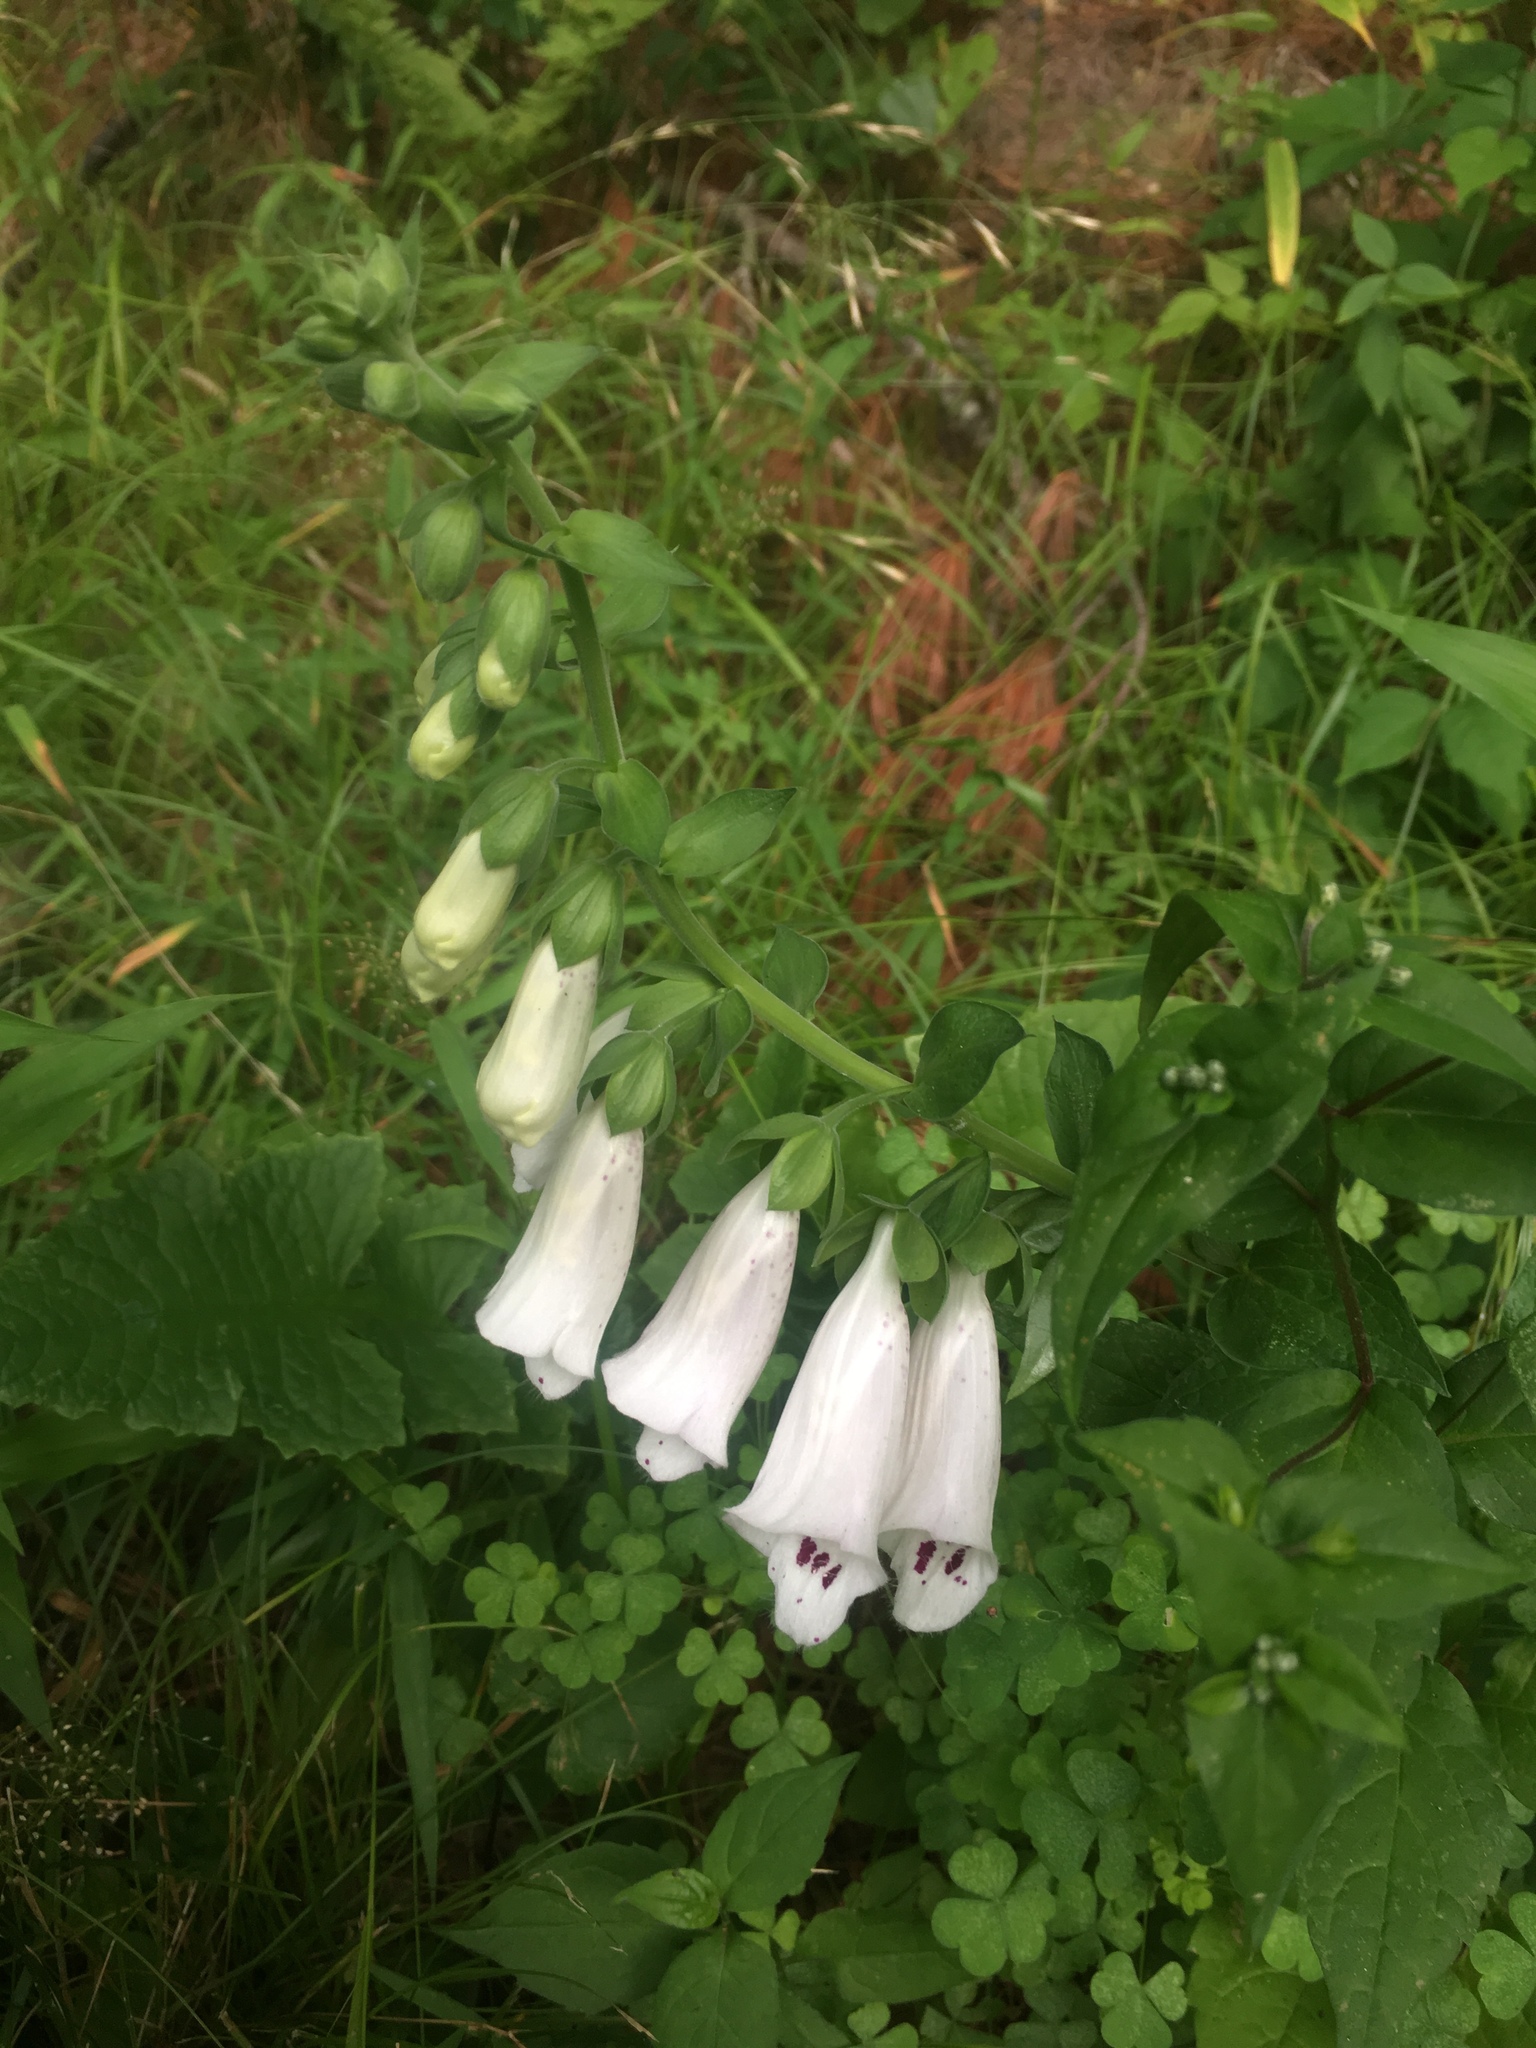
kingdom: Plantae
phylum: Tracheophyta
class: Magnoliopsida
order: Lamiales
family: Plantaginaceae
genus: Digitalis
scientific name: Digitalis purpurea
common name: Foxglove
